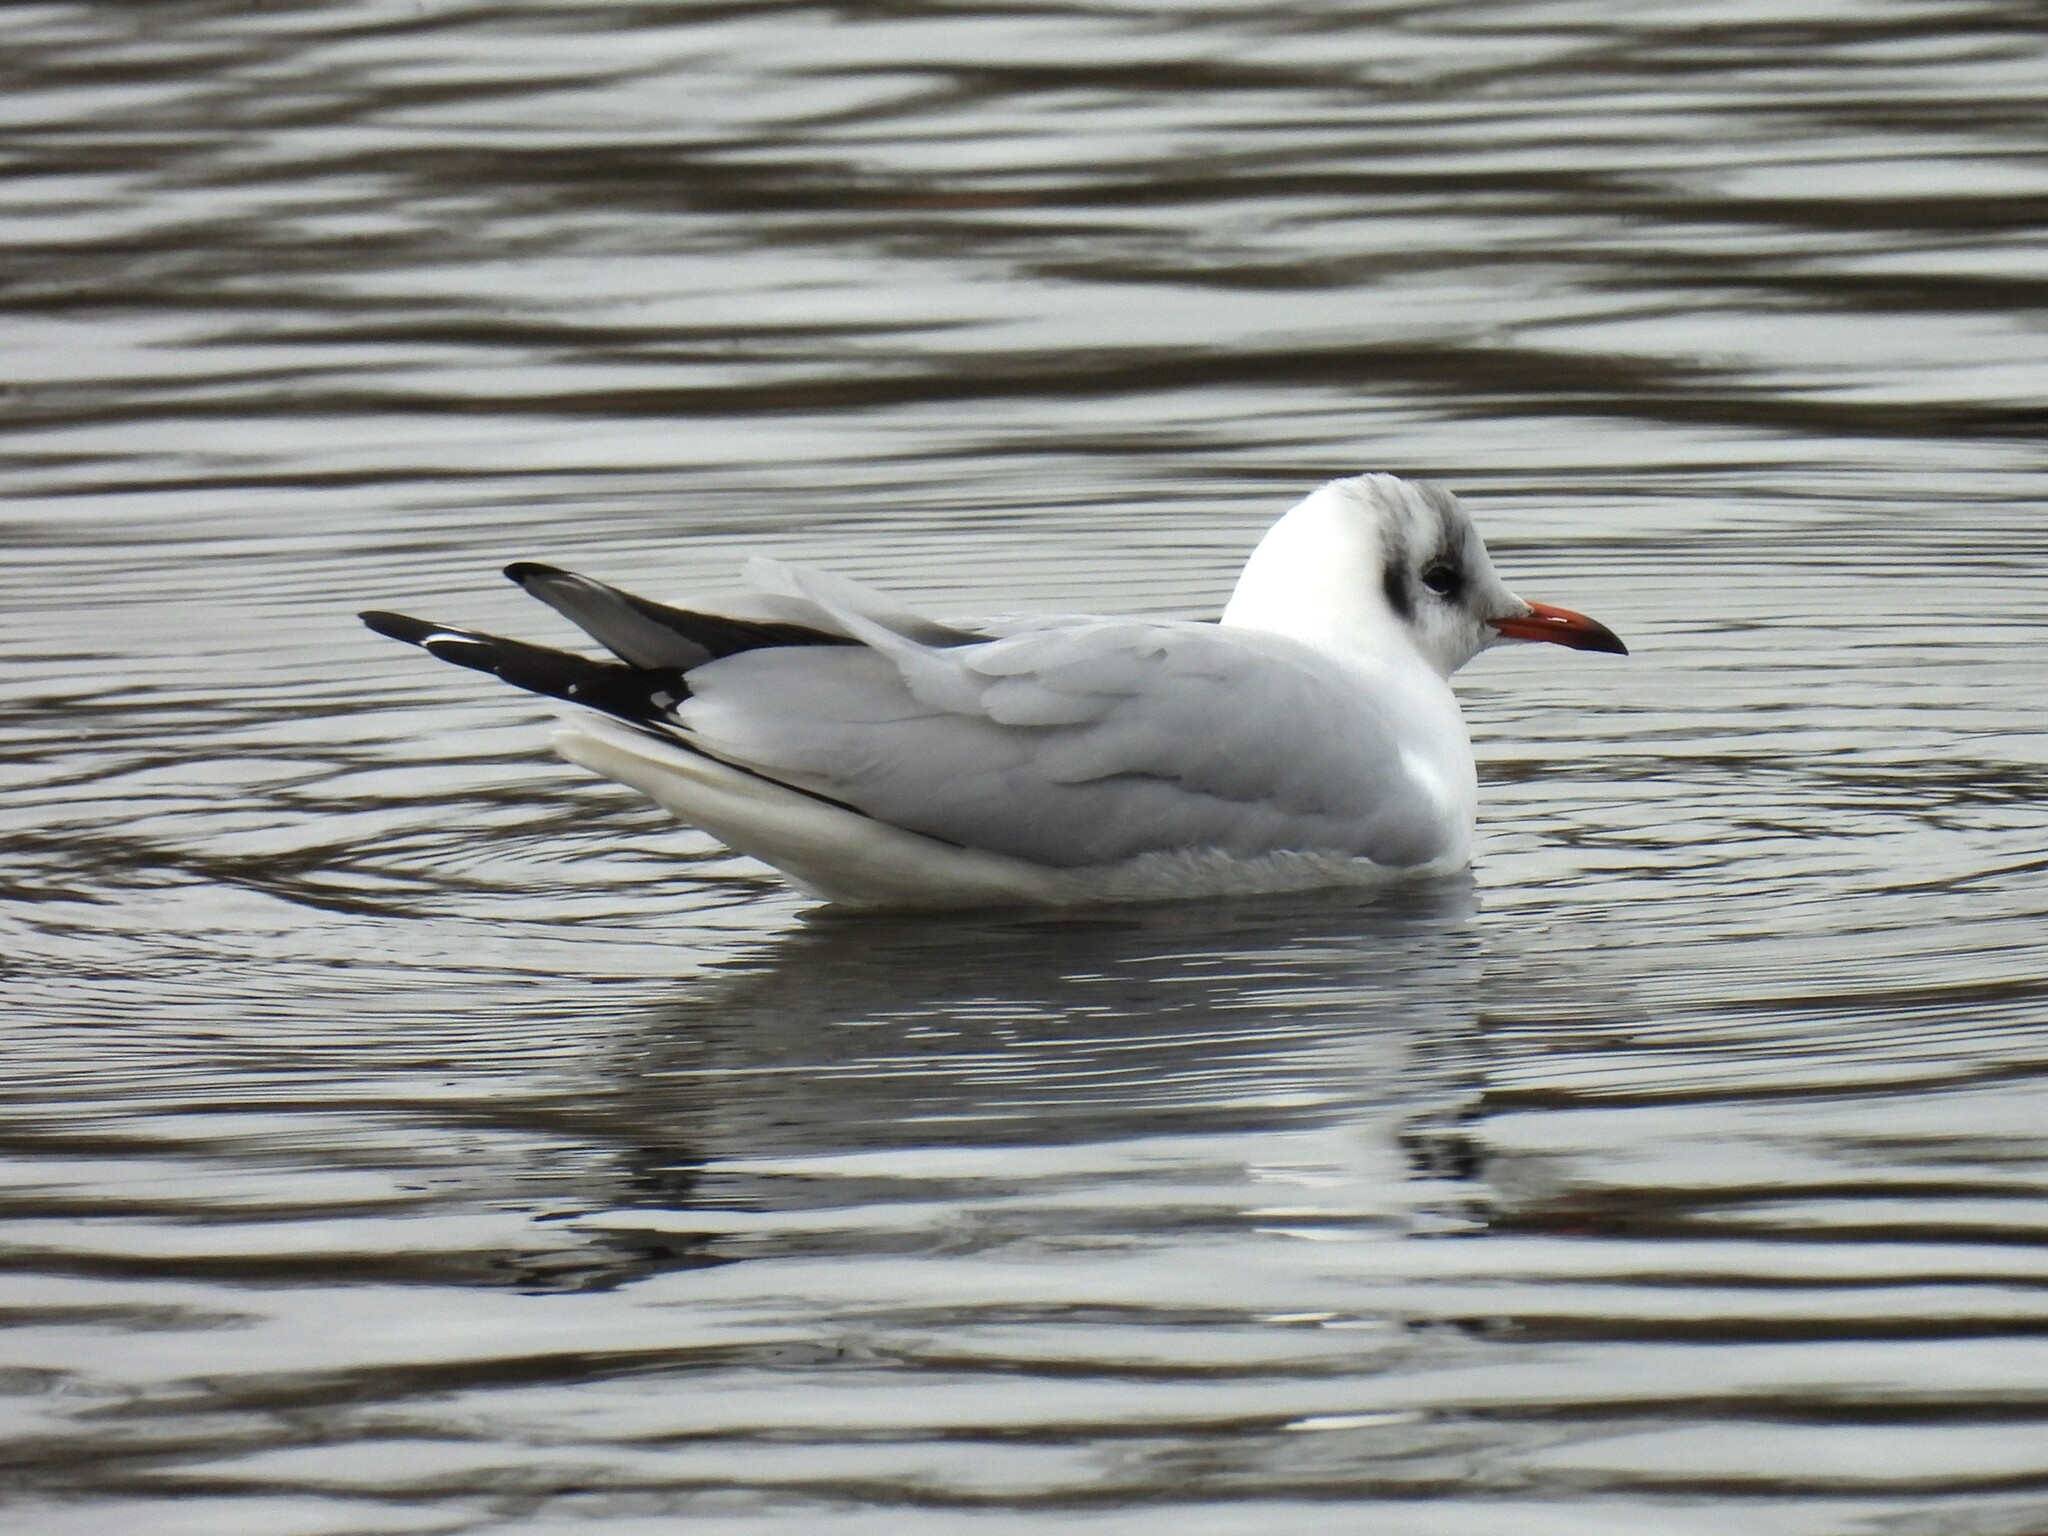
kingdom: Animalia
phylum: Chordata
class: Aves
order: Charadriiformes
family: Laridae
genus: Chroicocephalus
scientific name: Chroicocephalus ridibundus
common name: Black-headed gull
